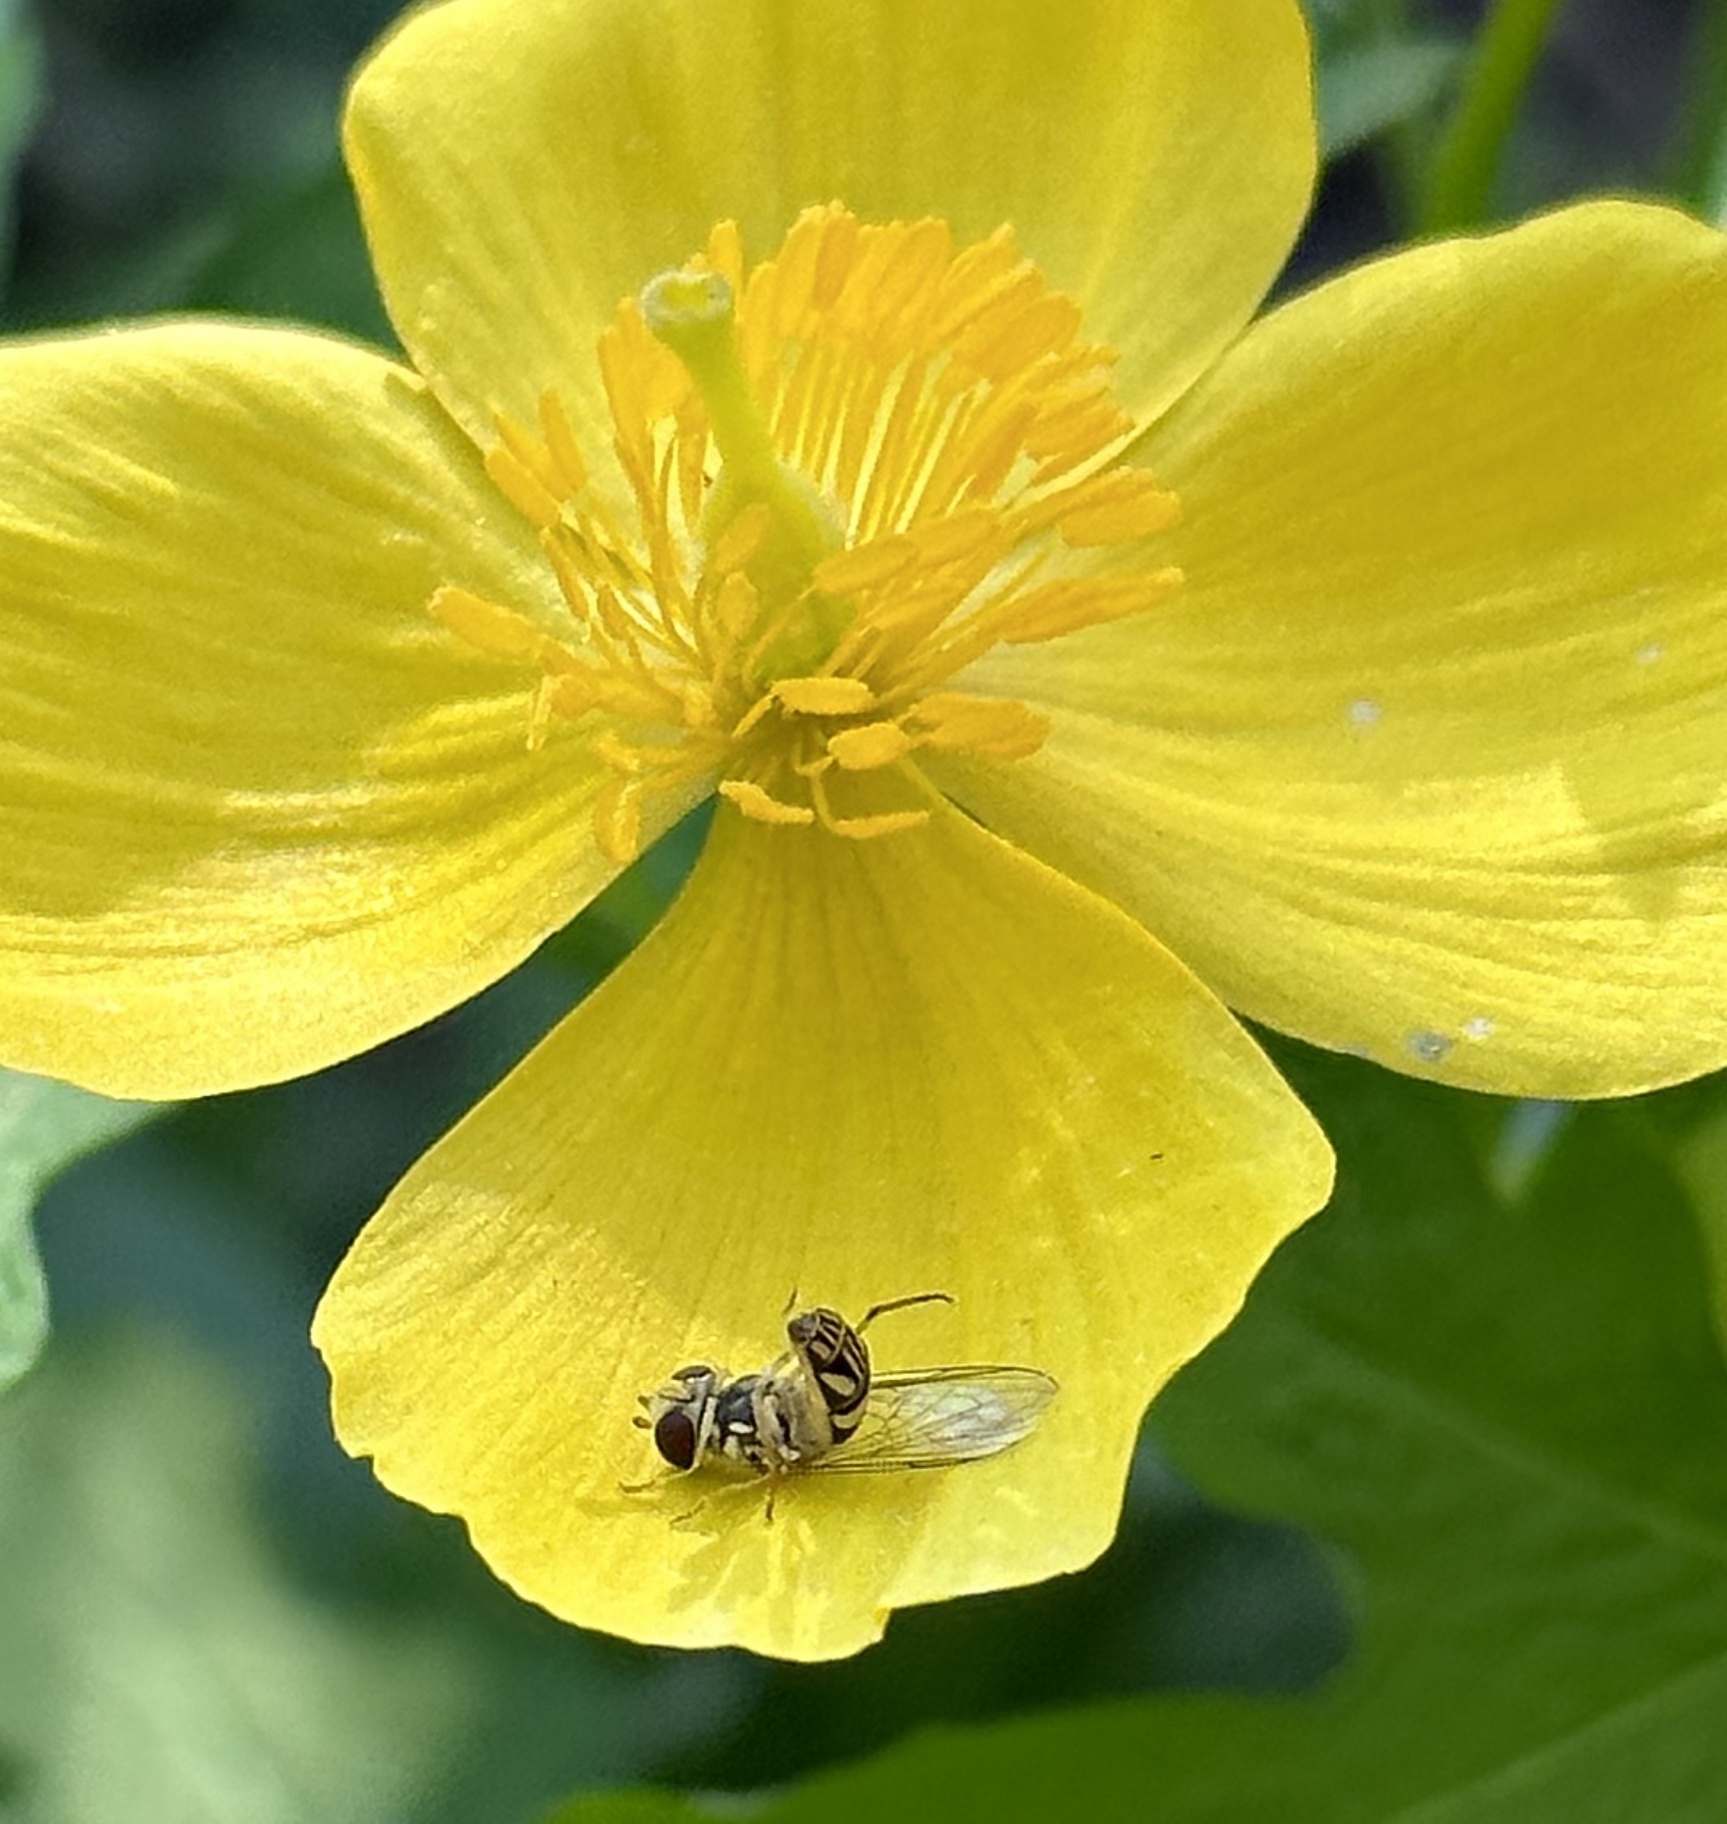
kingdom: Animalia
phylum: Arthropoda
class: Insecta
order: Diptera
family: Syrphidae
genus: Allograpta
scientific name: Allograpta obliqua
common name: Common oblique syrphid
